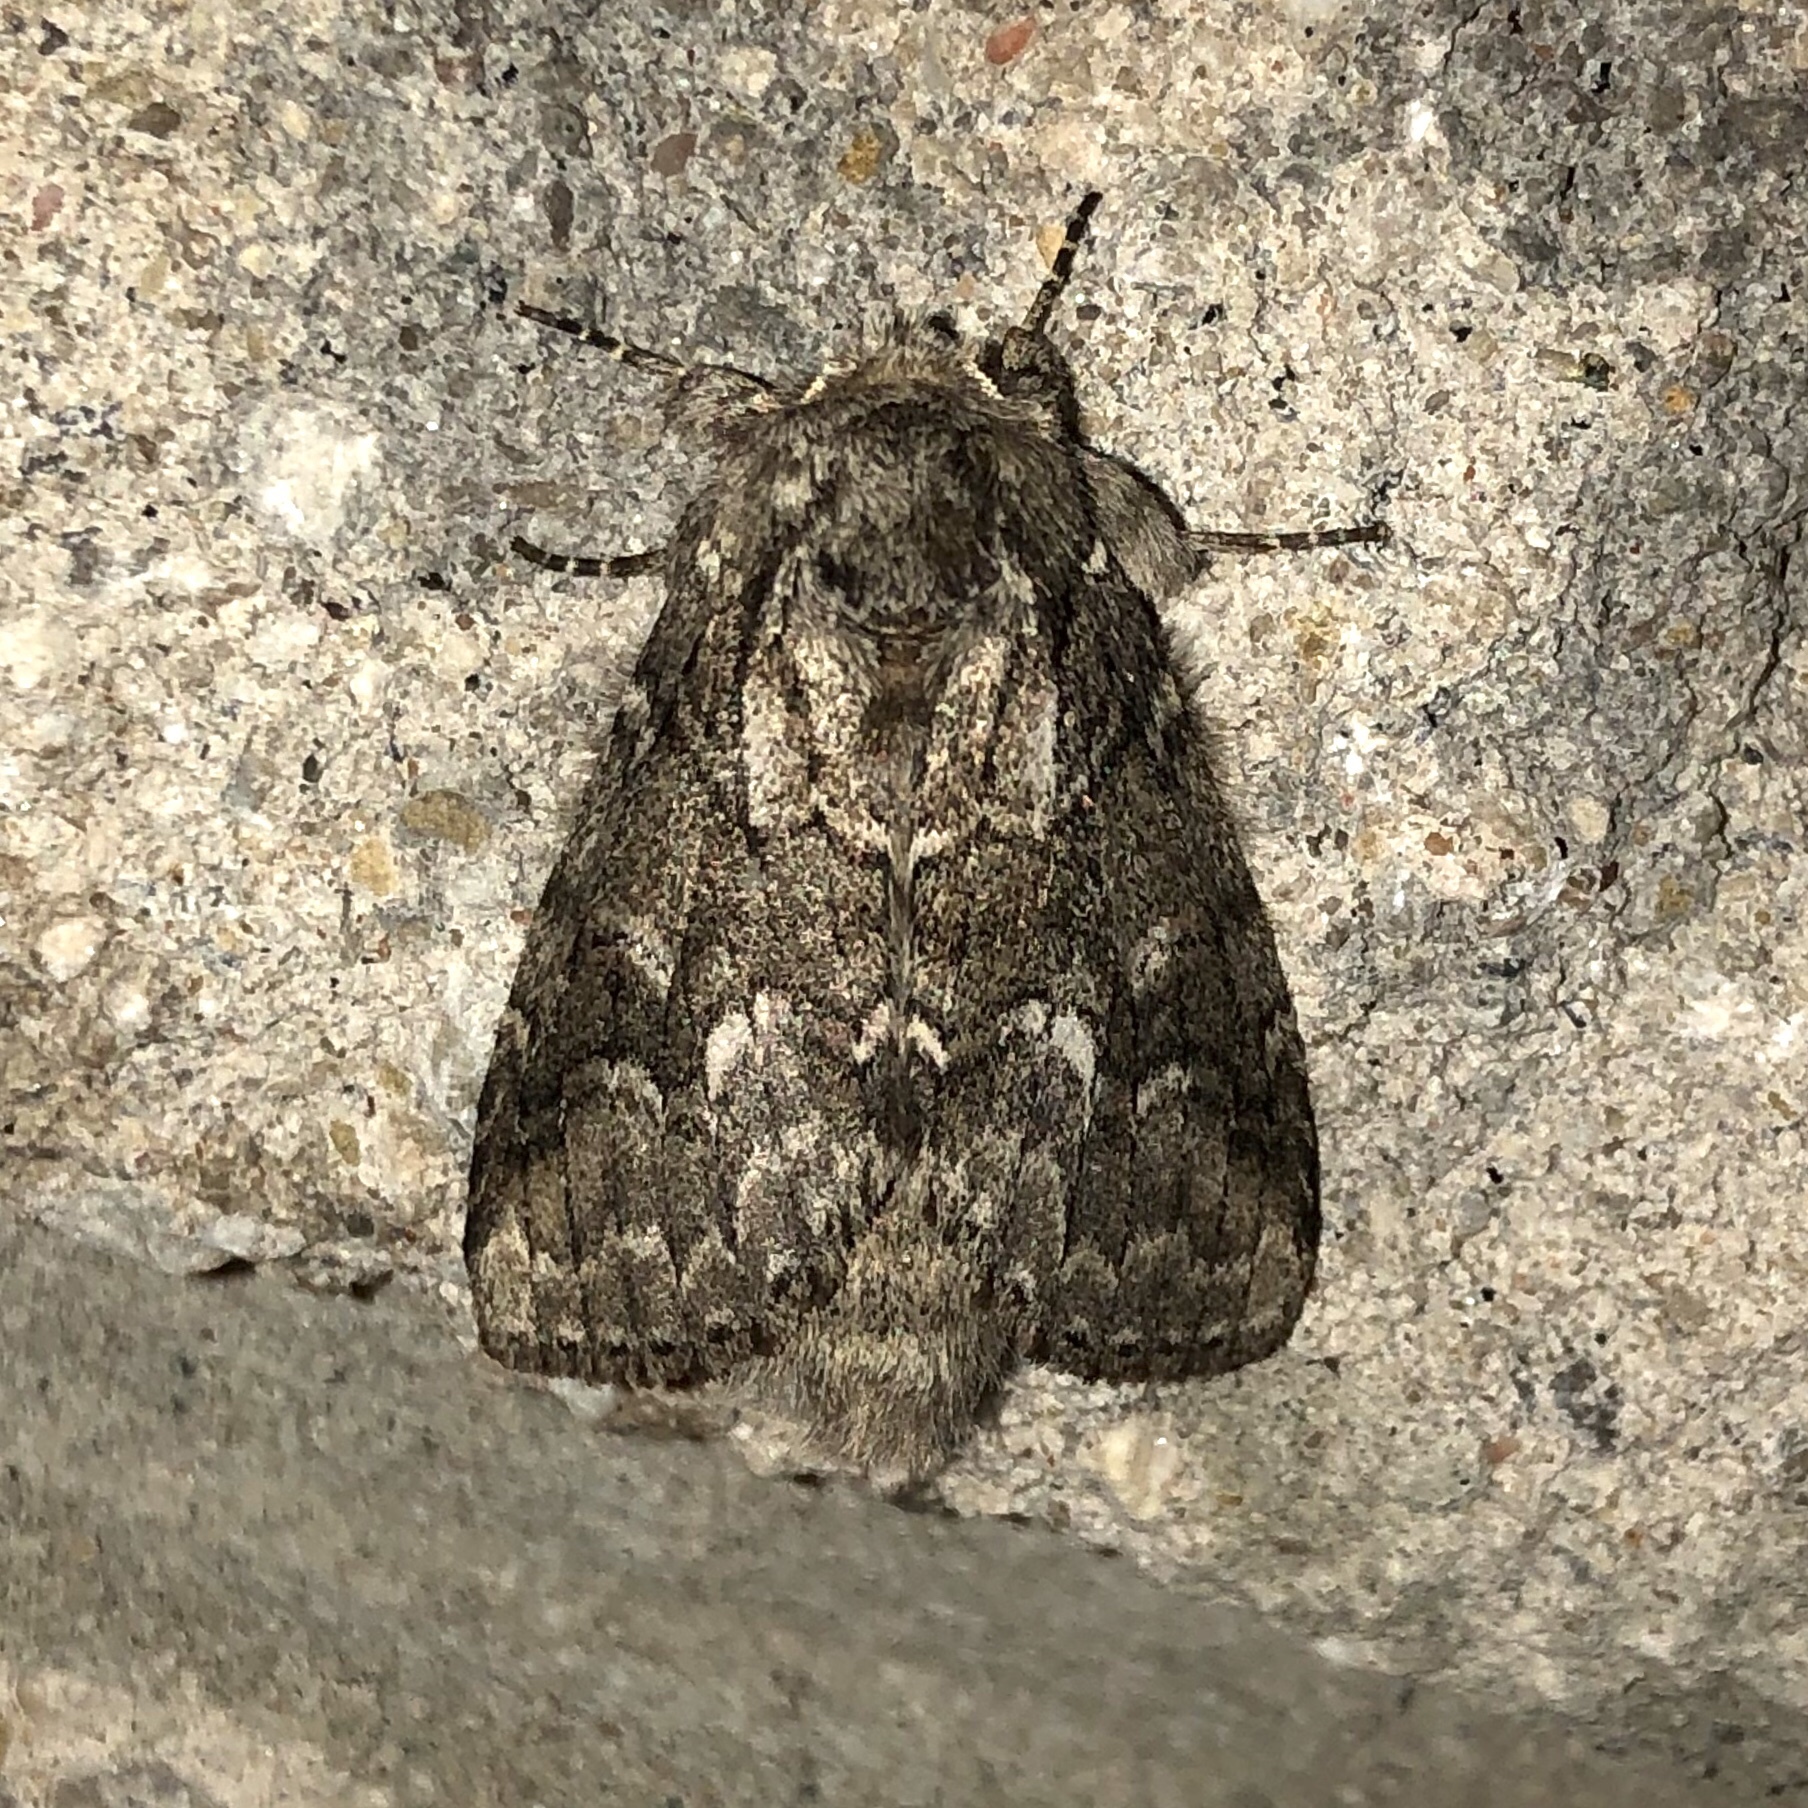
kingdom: Animalia
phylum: Arthropoda
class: Insecta
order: Lepidoptera
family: Notodontidae
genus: Lochmaeus
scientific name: Lochmaeus bilineata
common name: Double-lined prominent
